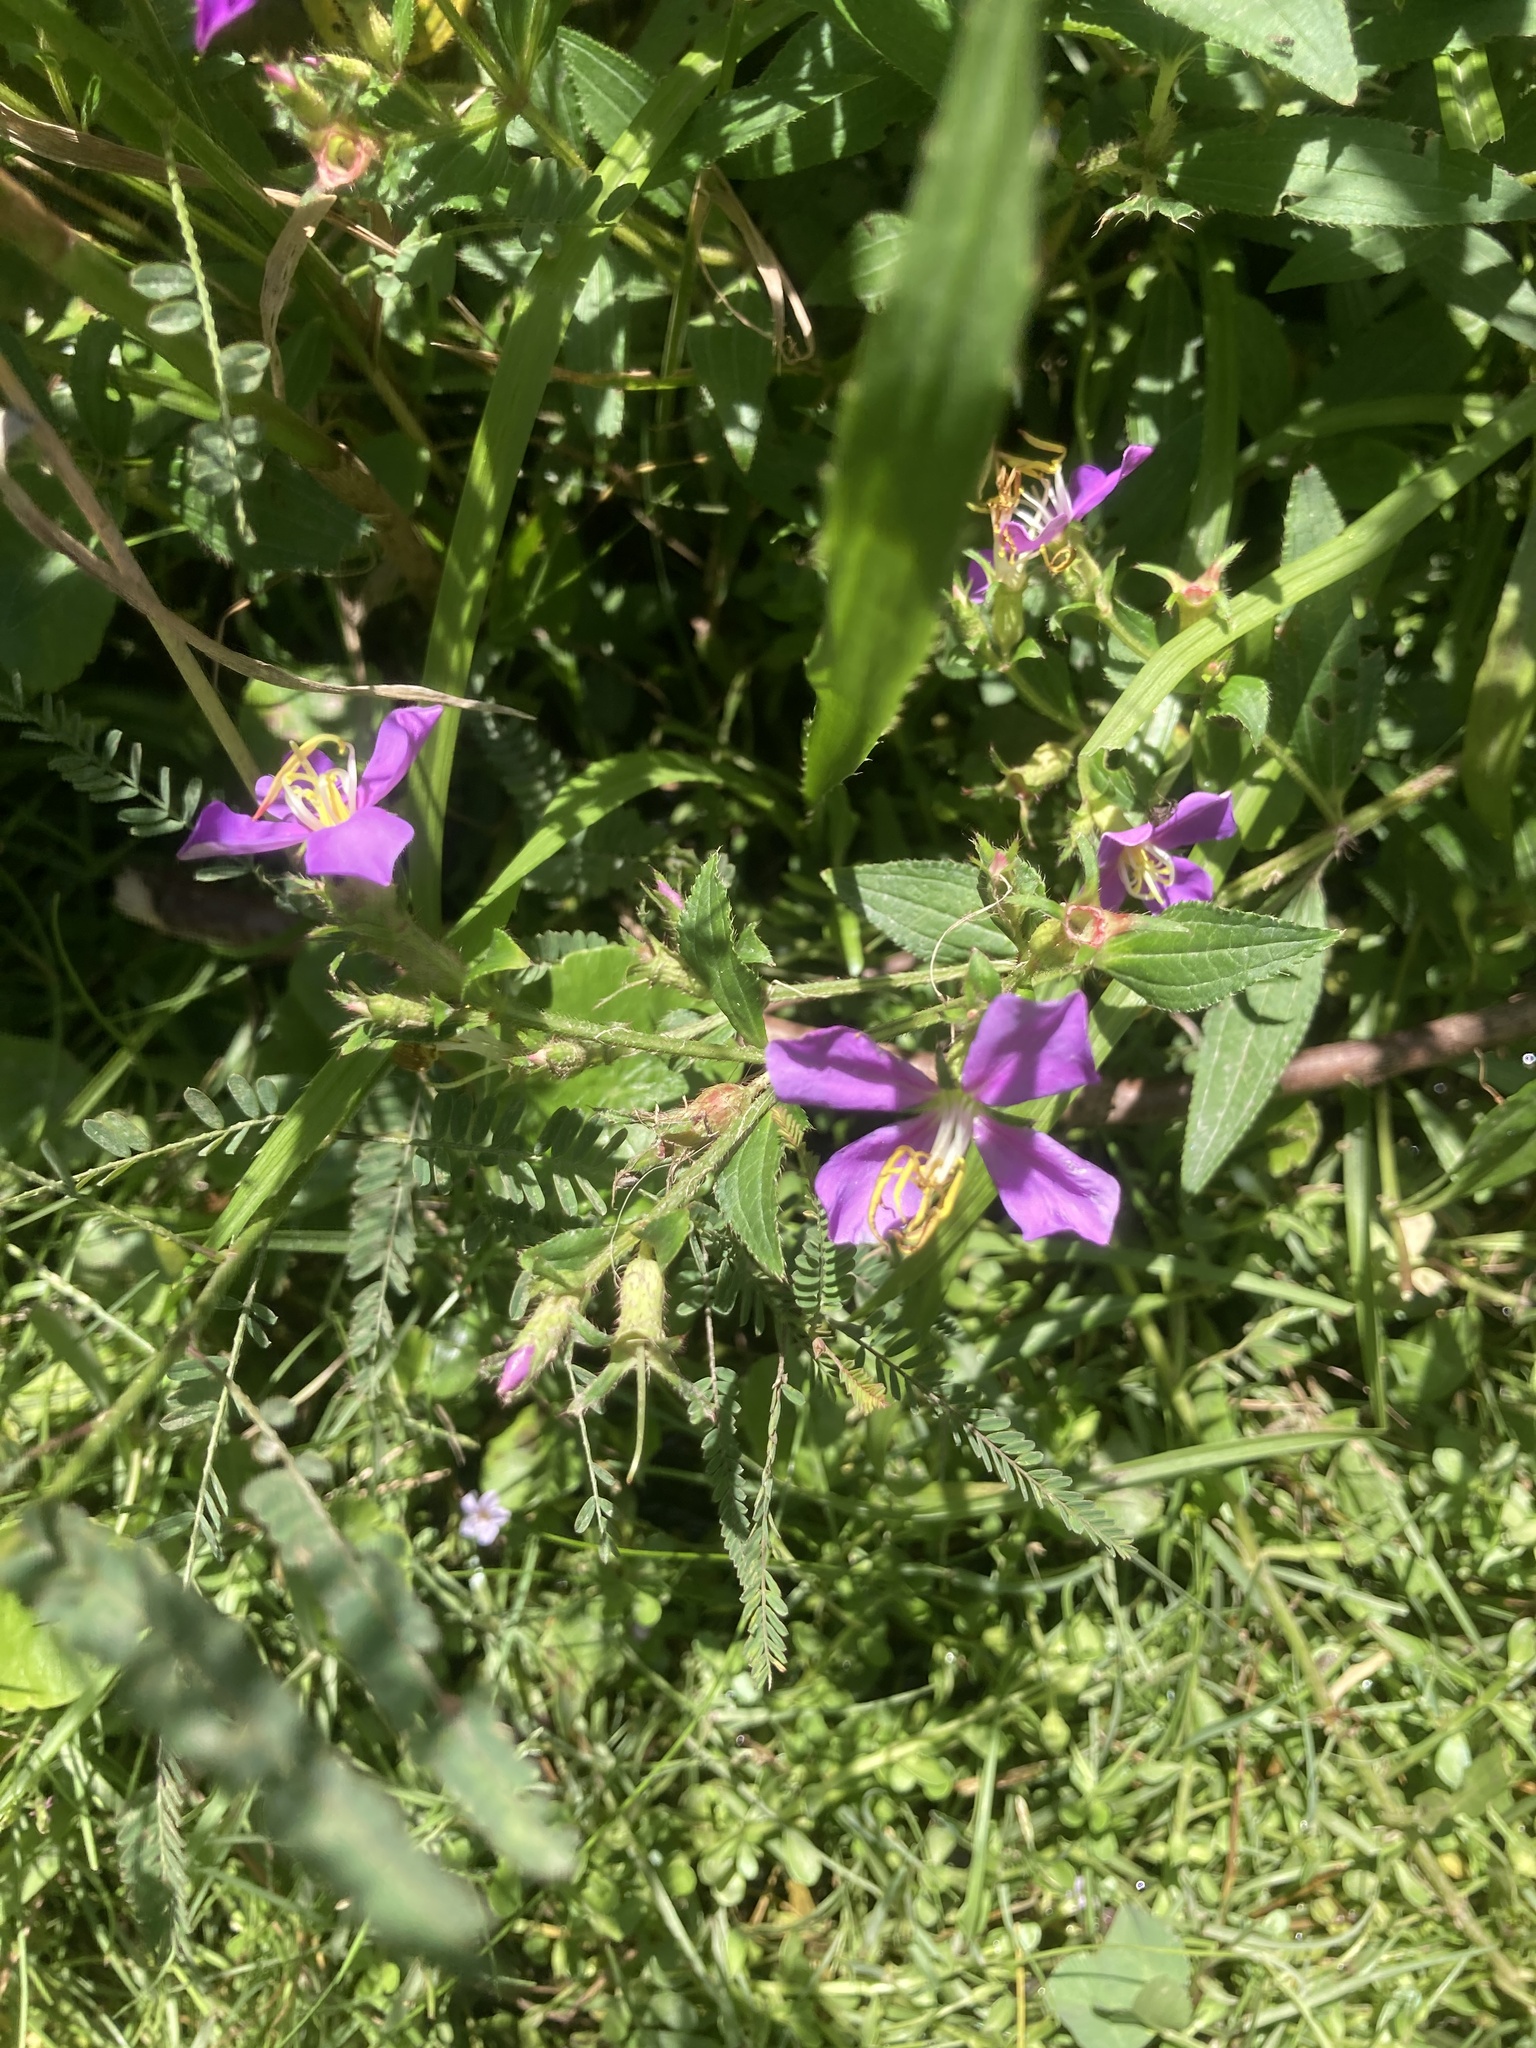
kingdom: Plantae
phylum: Tracheophyta
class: Magnoliopsida
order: Myrtales
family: Melastomataceae
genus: Chaetogastra
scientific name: Chaetogastra nitida
